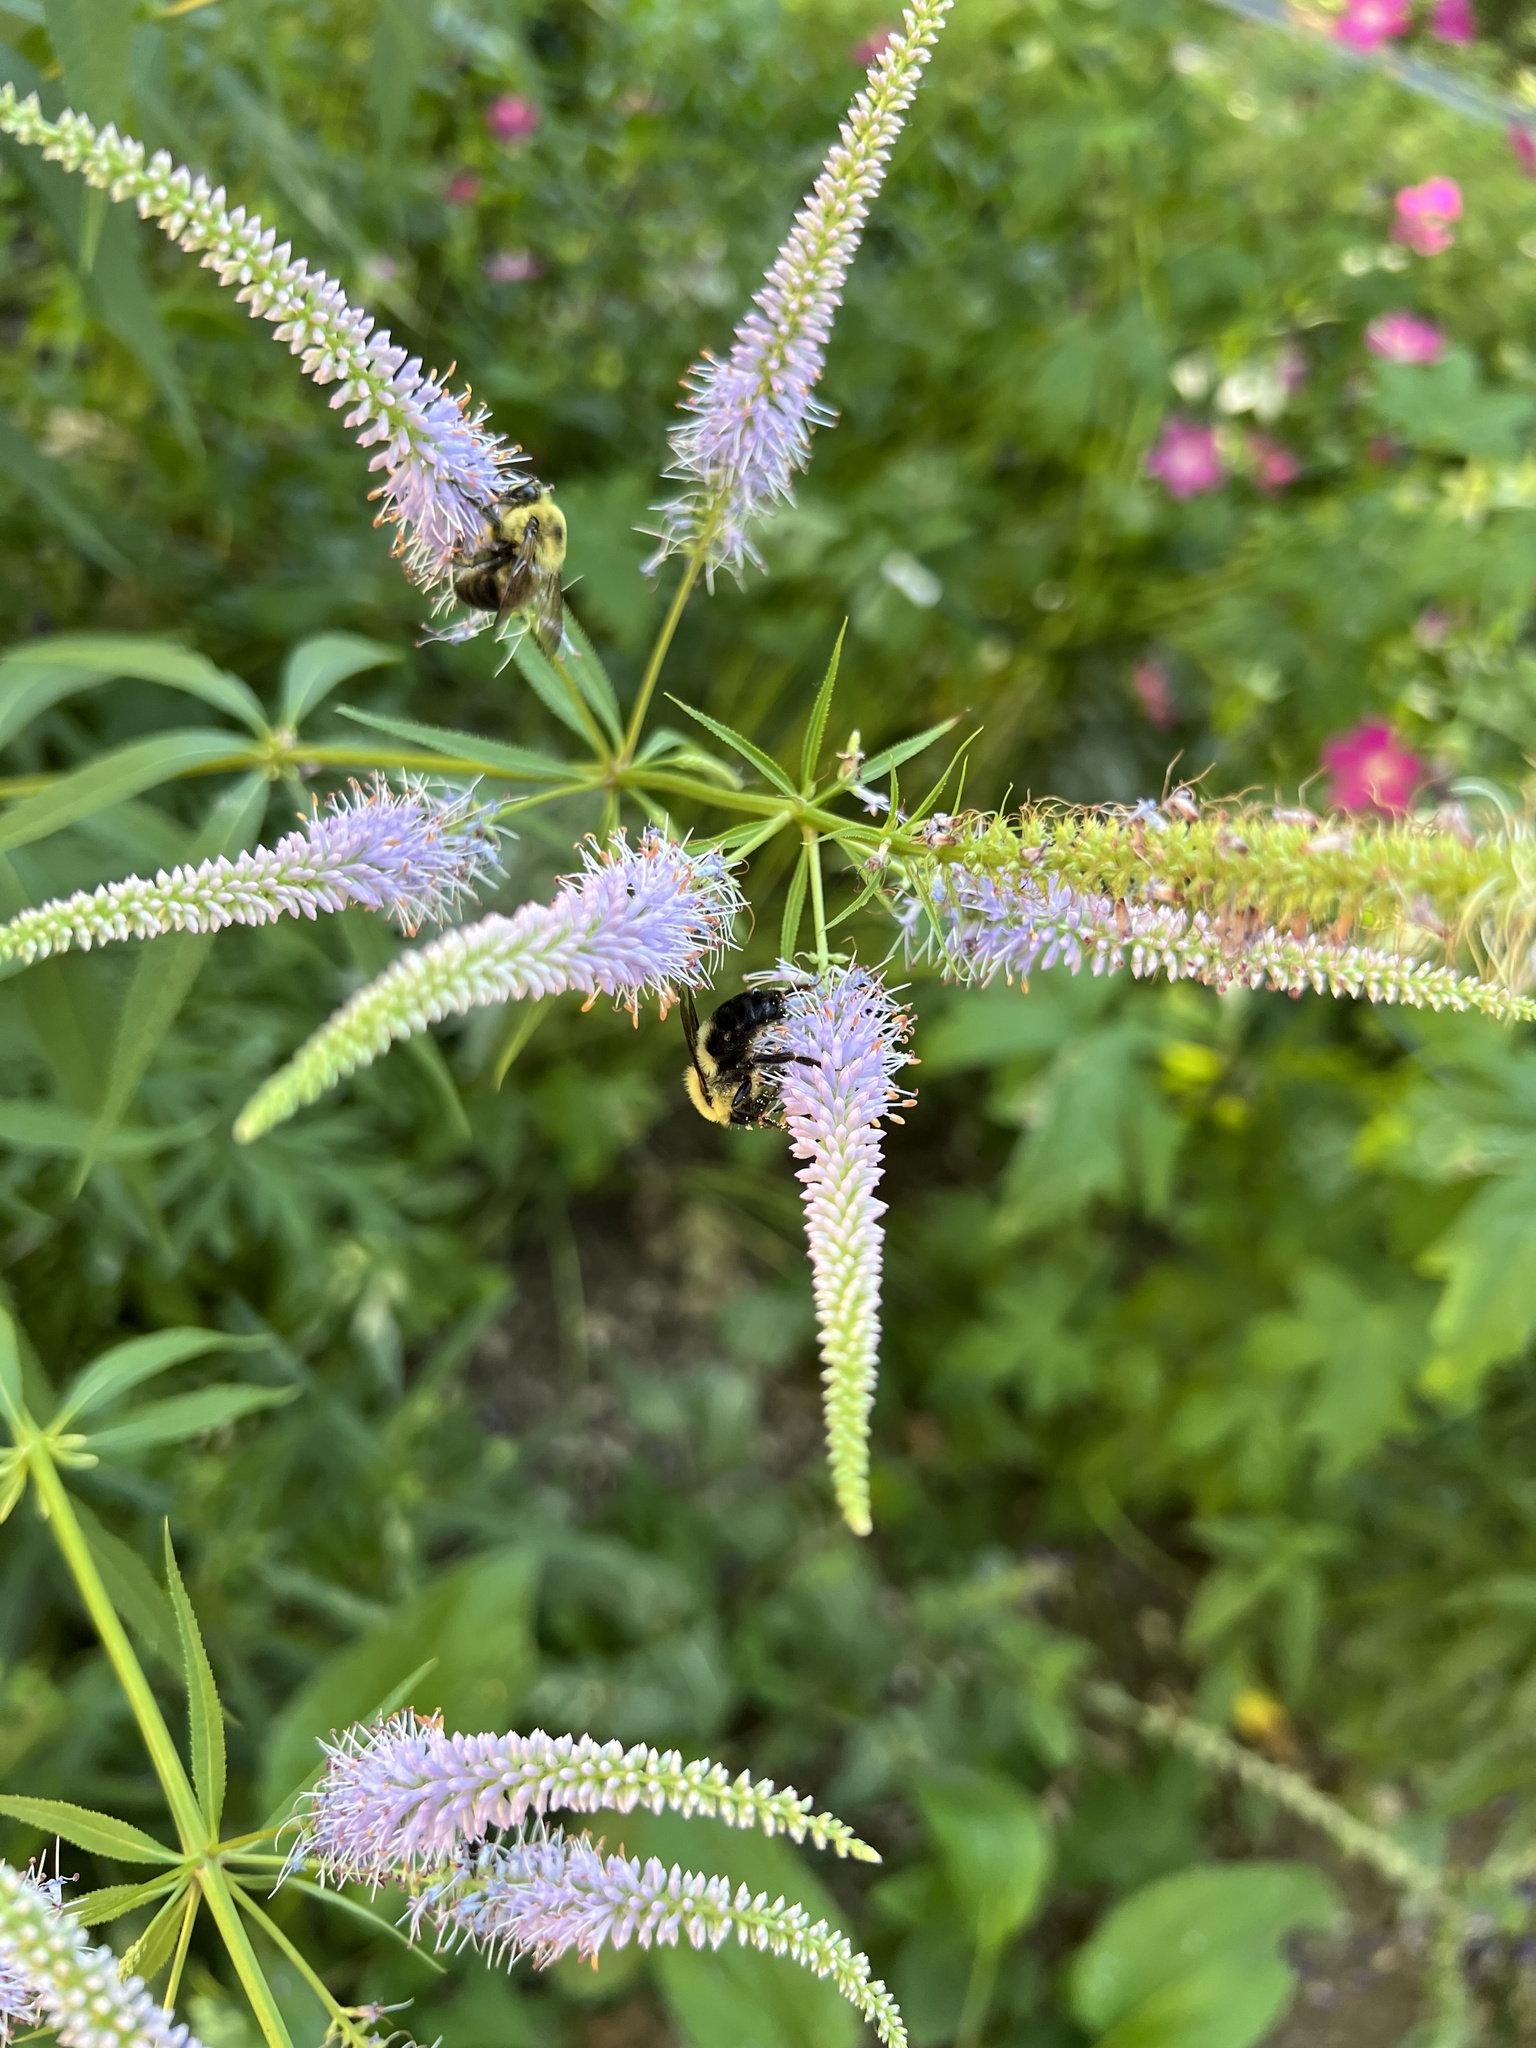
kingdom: Animalia
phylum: Arthropoda
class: Insecta
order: Hymenoptera
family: Apidae
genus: Bombus
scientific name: Bombus bimaculatus
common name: Two-spotted bumble bee
